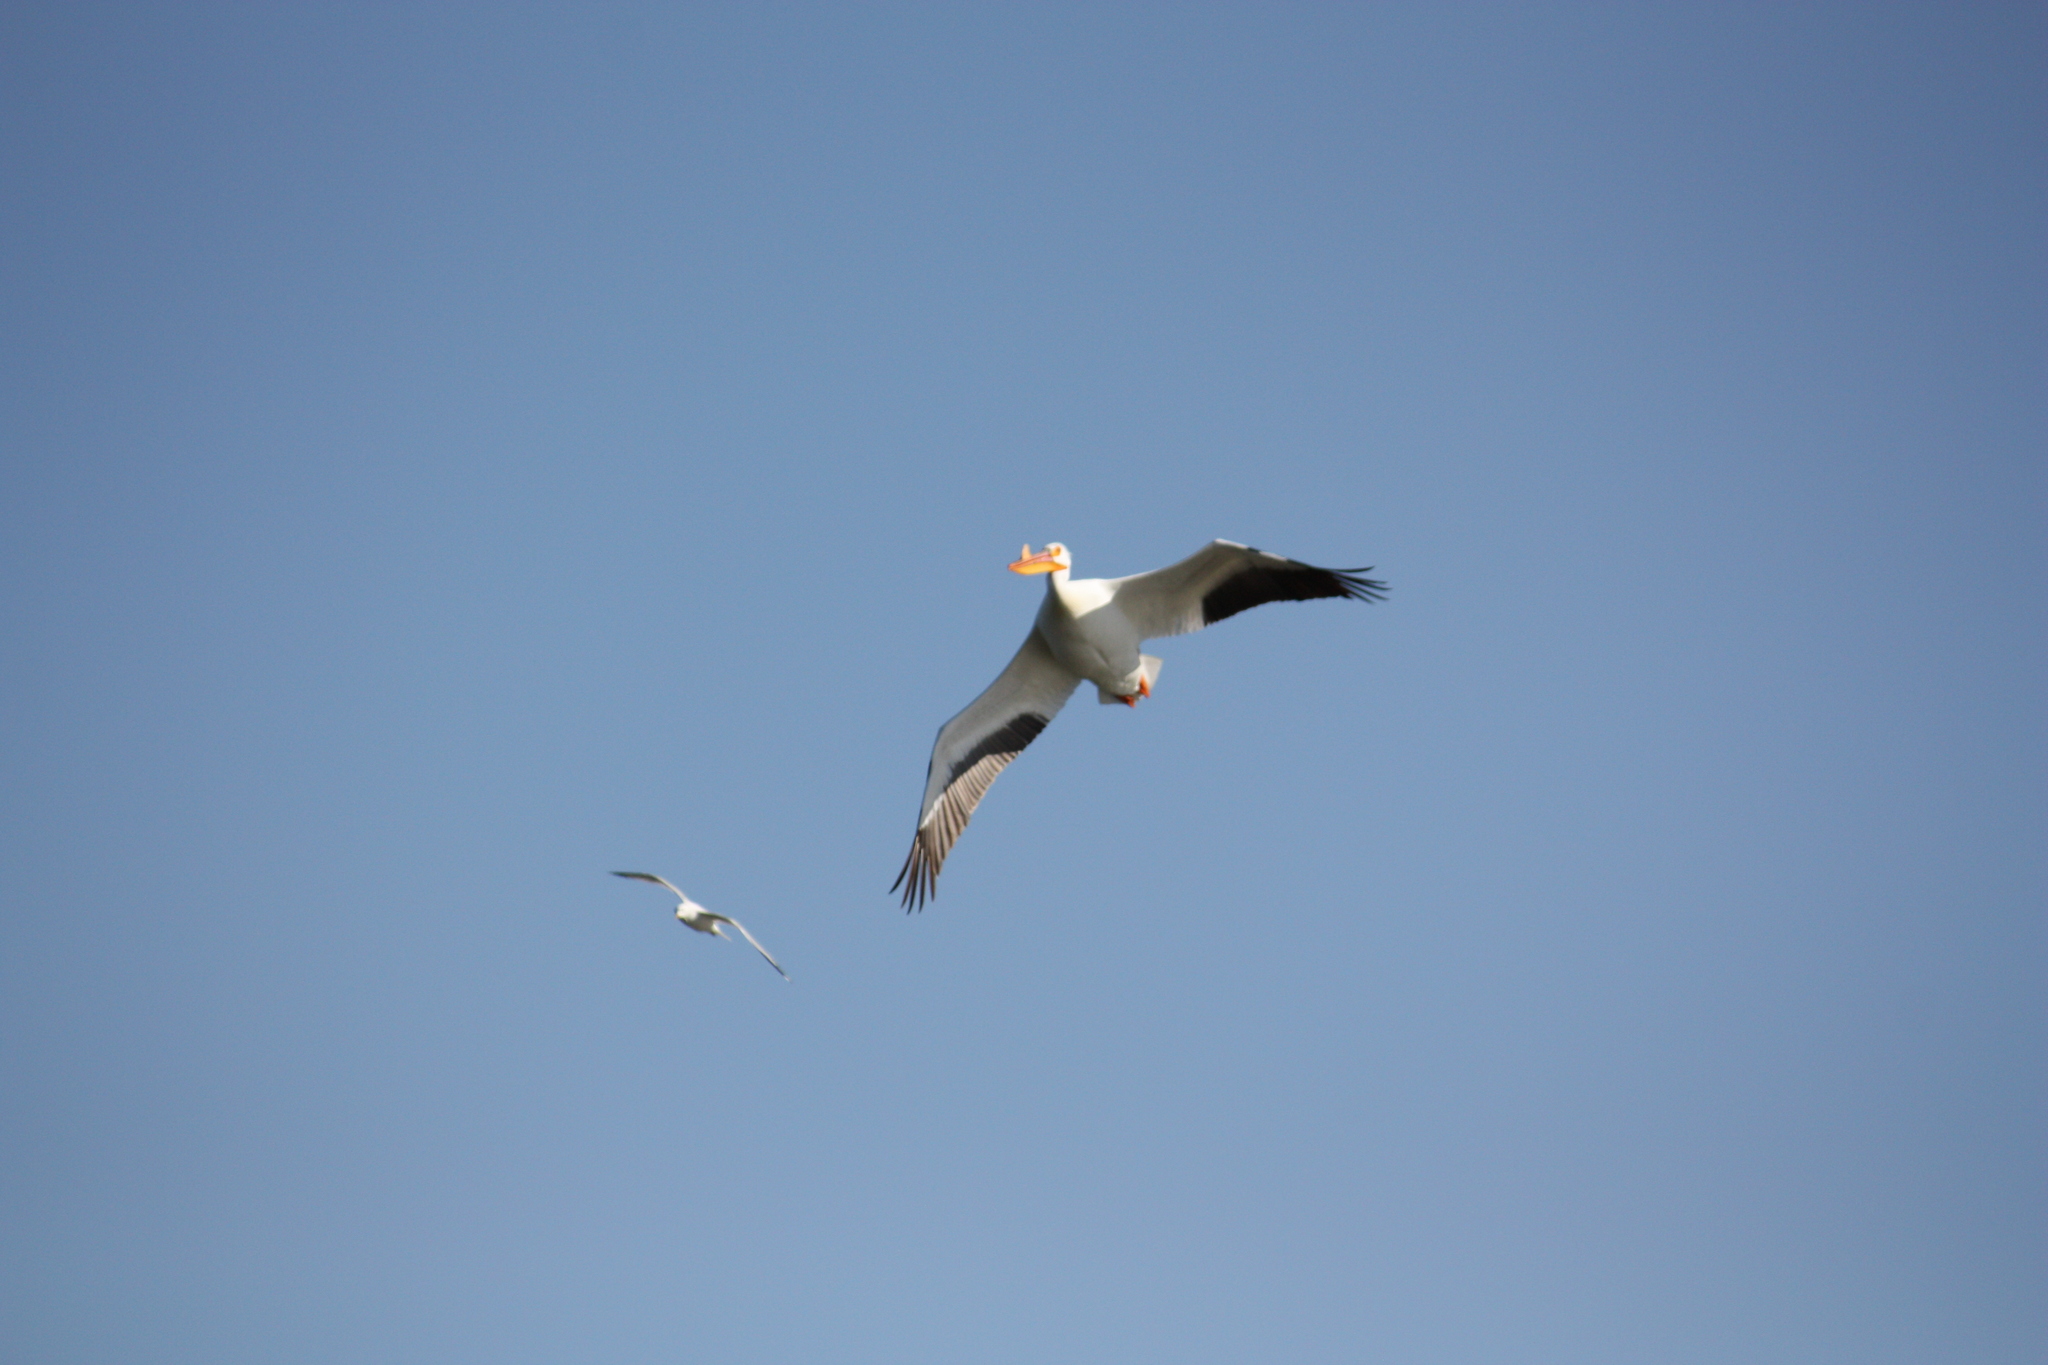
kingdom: Animalia
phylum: Chordata
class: Aves
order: Pelecaniformes
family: Pelecanidae
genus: Pelecanus
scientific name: Pelecanus erythrorhynchos
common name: American white pelican
